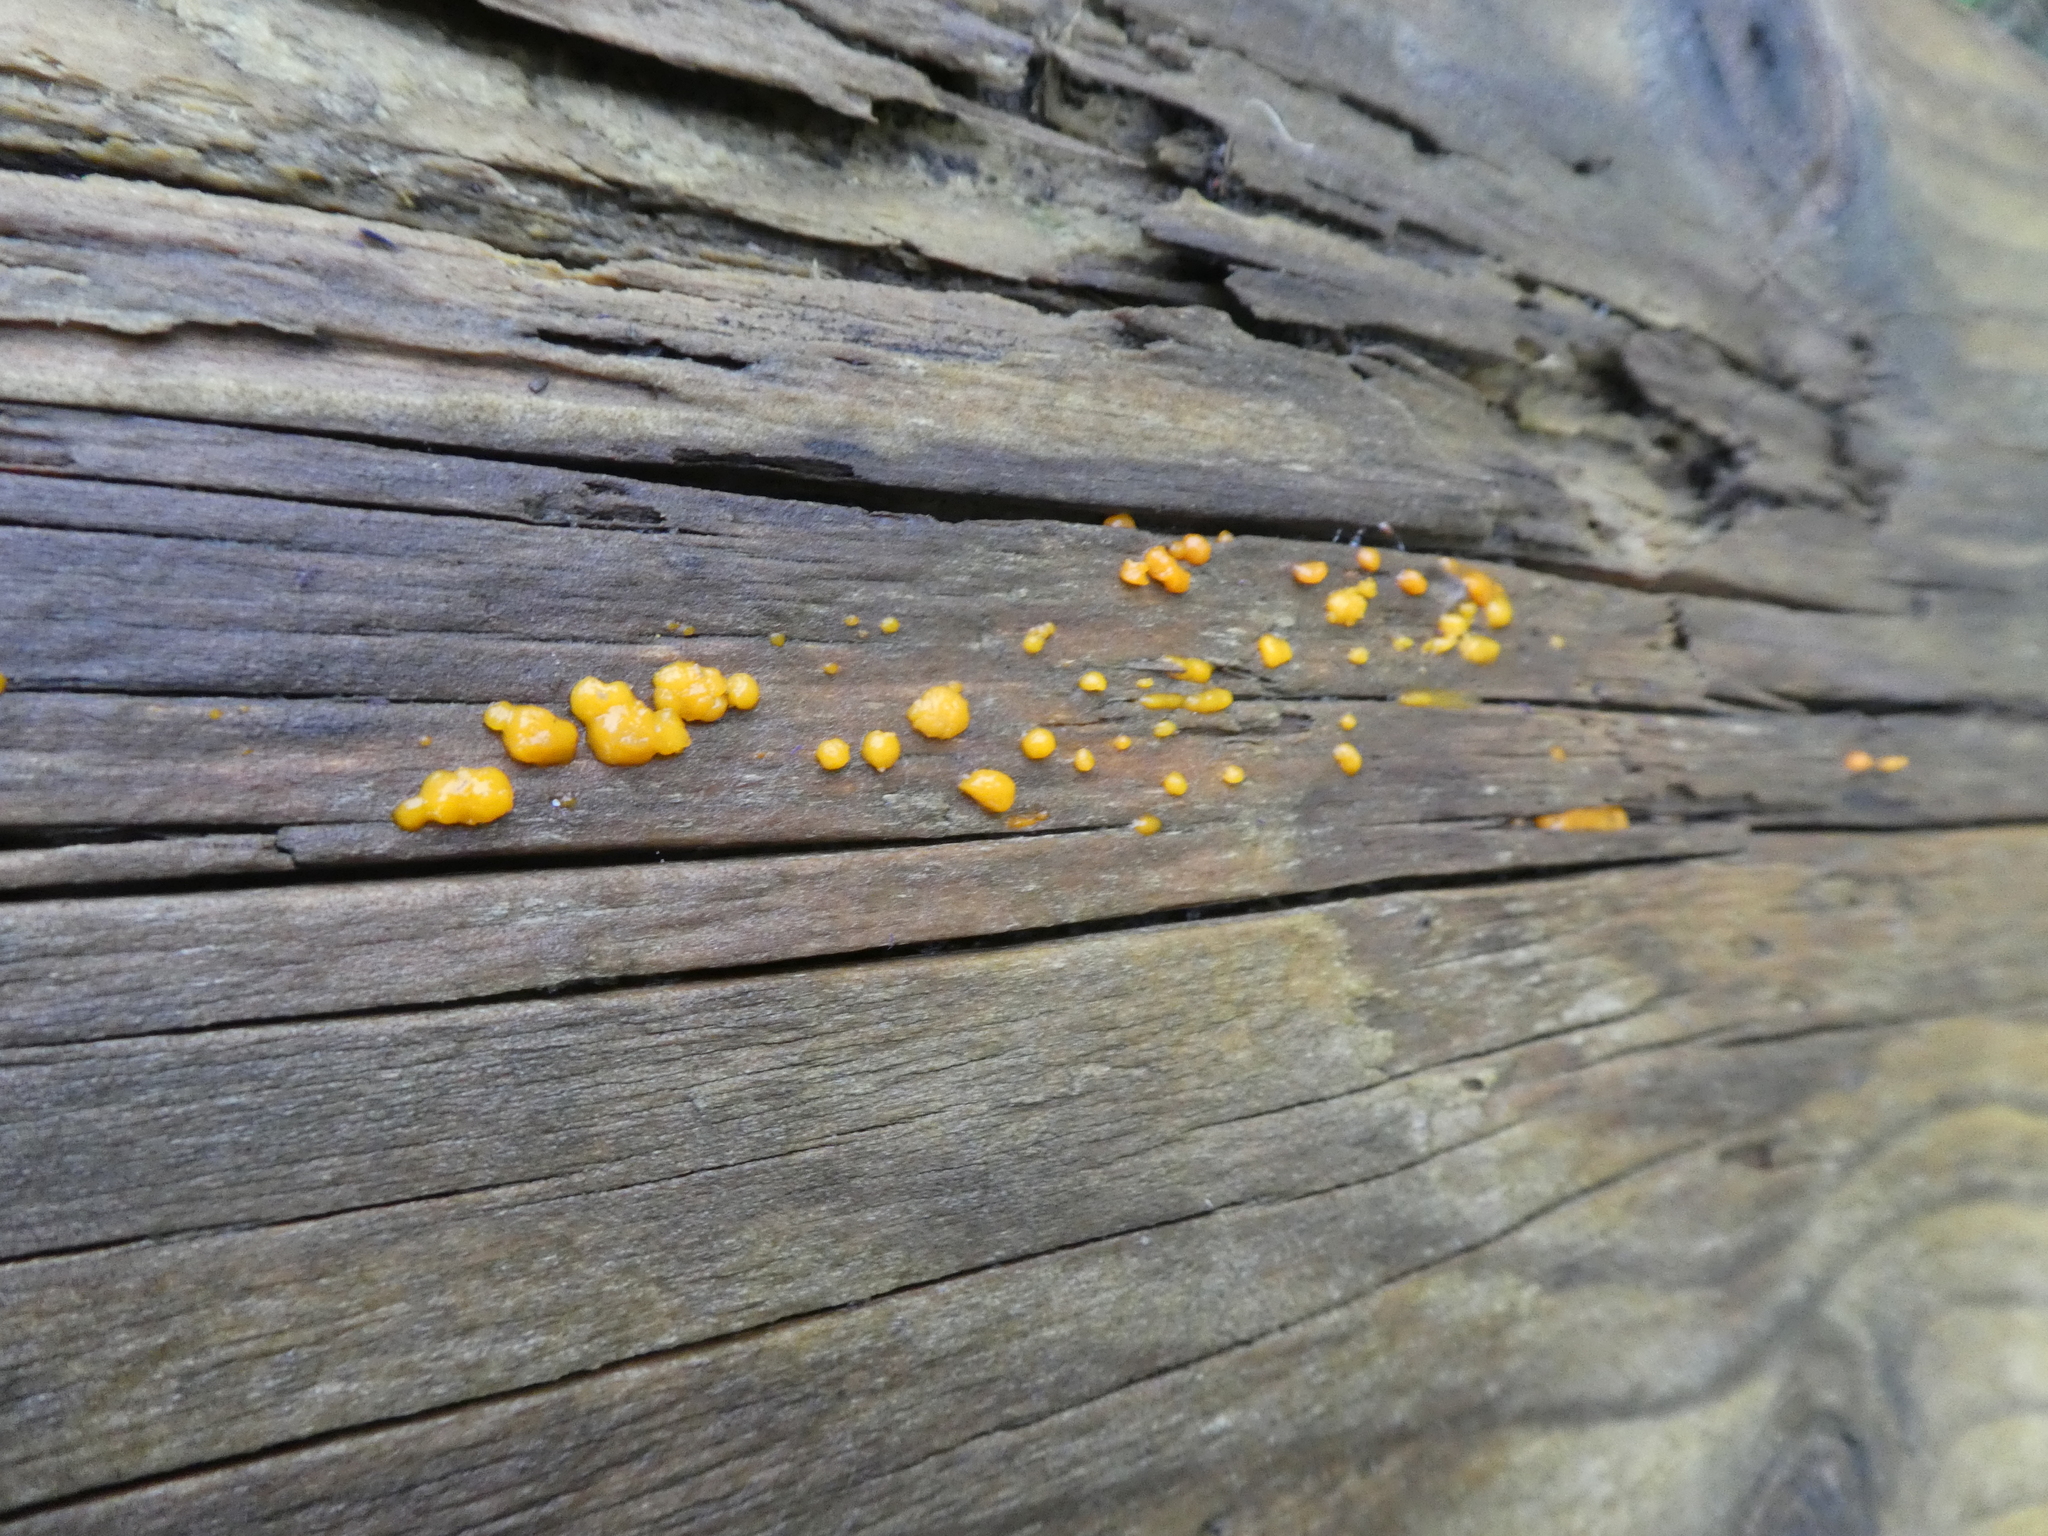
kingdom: Fungi
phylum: Basidiomycota
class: Dacrymycetes
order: Dacrymycetales
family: Dacrymycetaceae
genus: Dacrymyces
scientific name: Dacrymyces stillatus
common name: Common jelly spot
